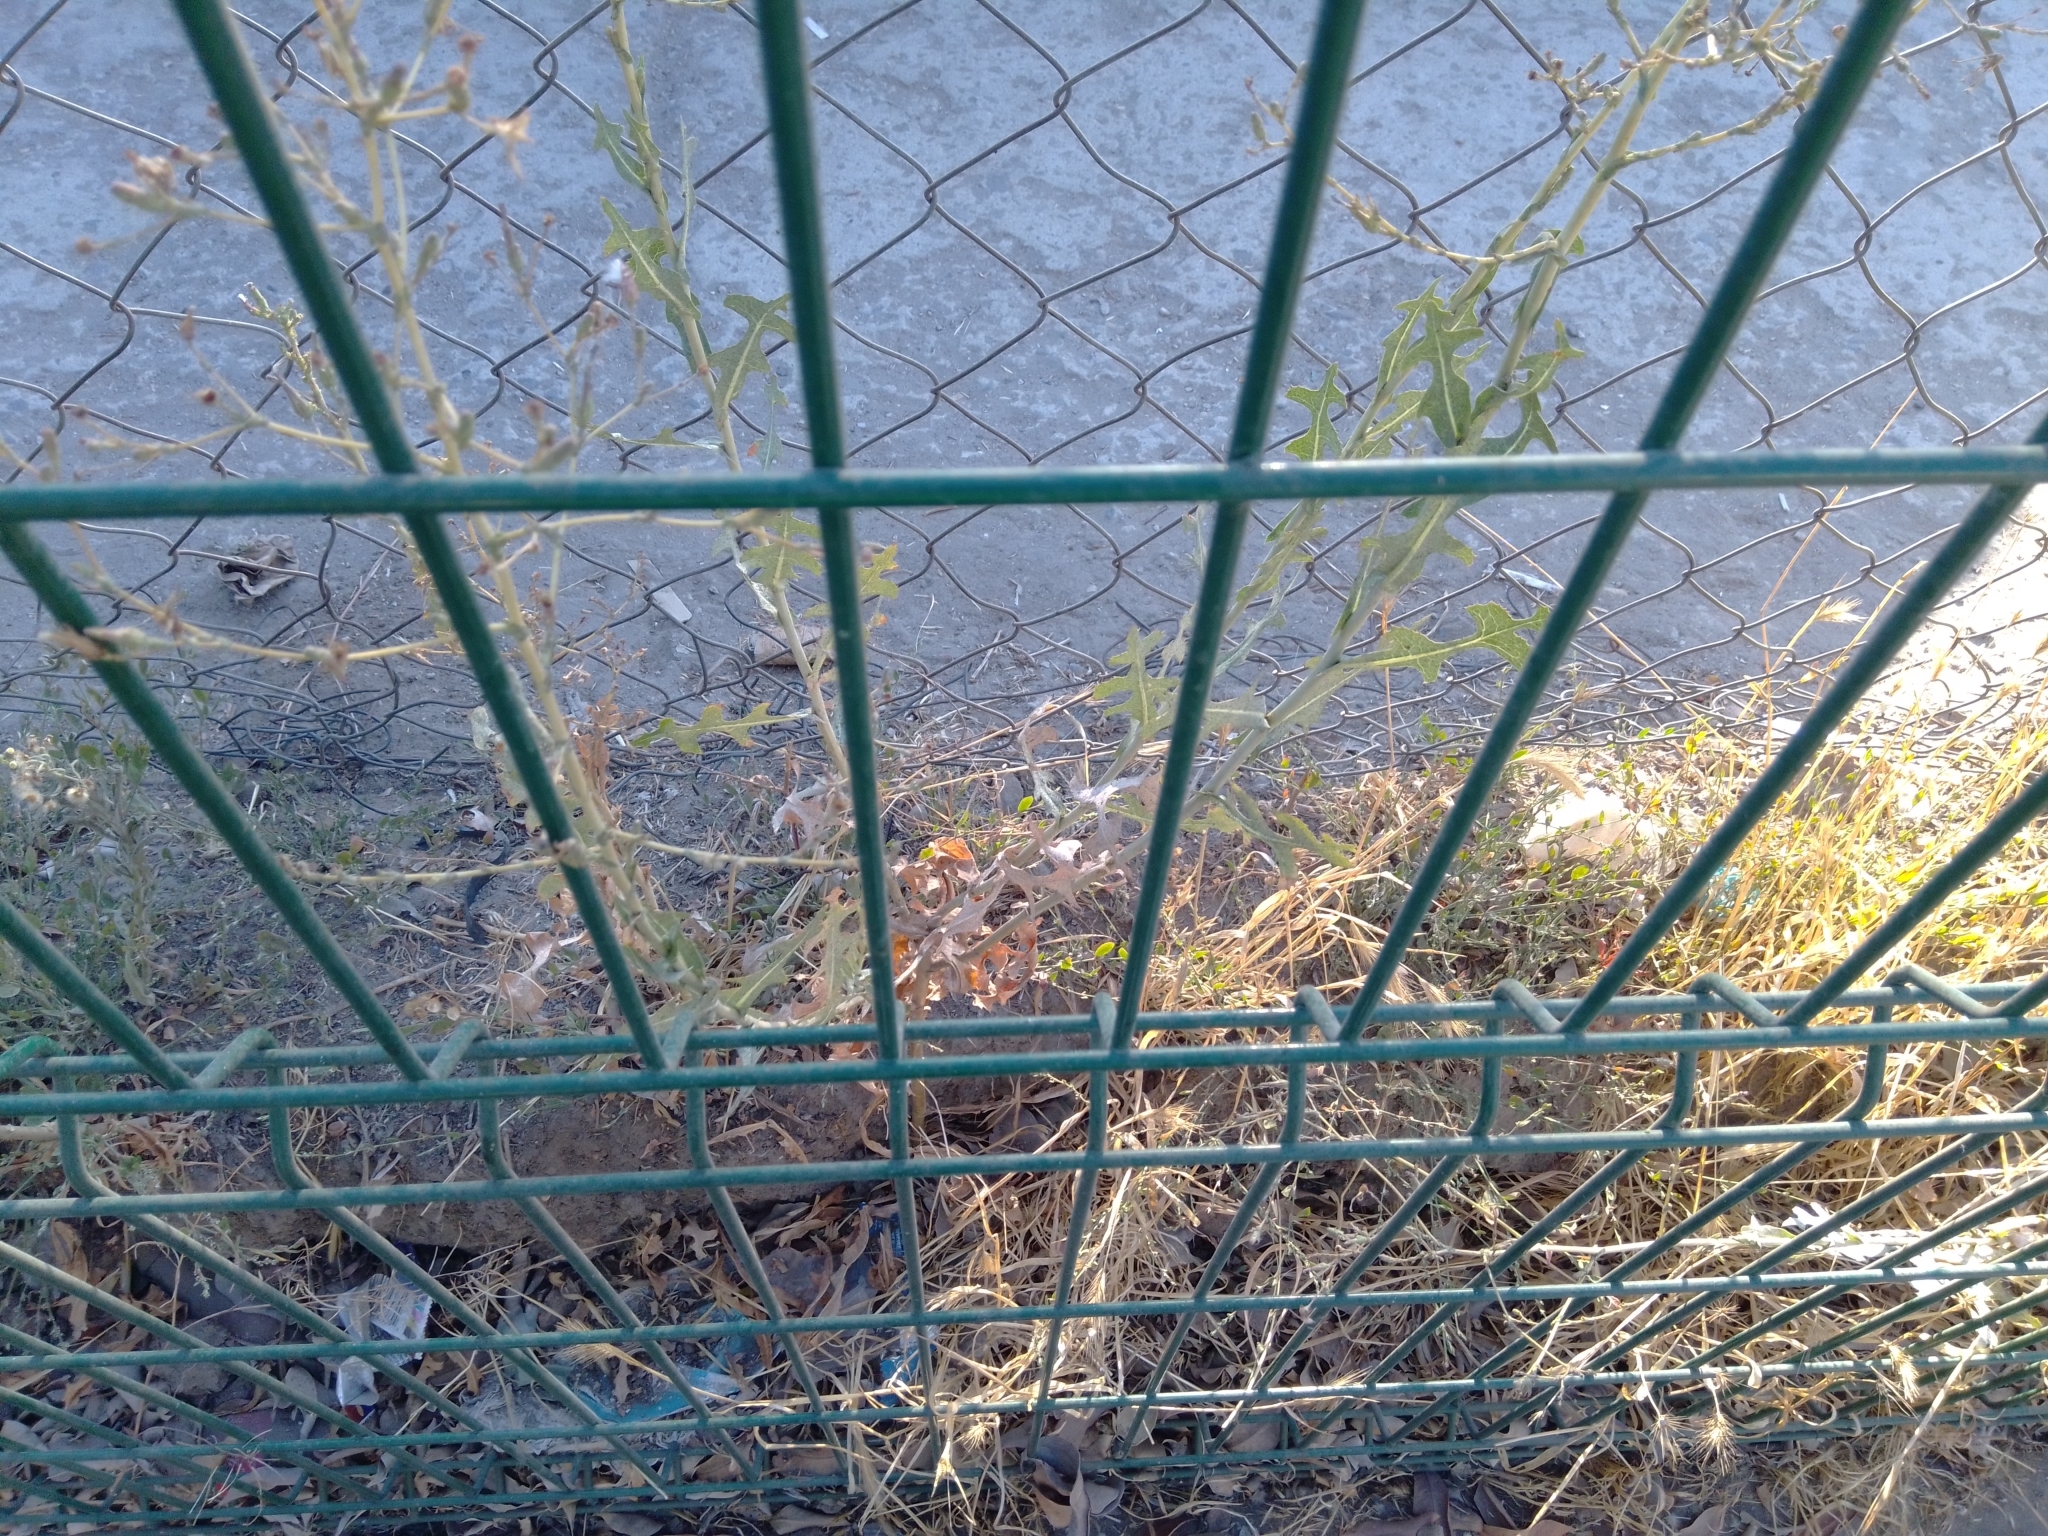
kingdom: Plantae
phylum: Tracheophyta
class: Magnoliopsida
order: Asterales
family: Asteraceae
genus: Lactuca
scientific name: Lactuca serriola
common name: Prickly lettuce
